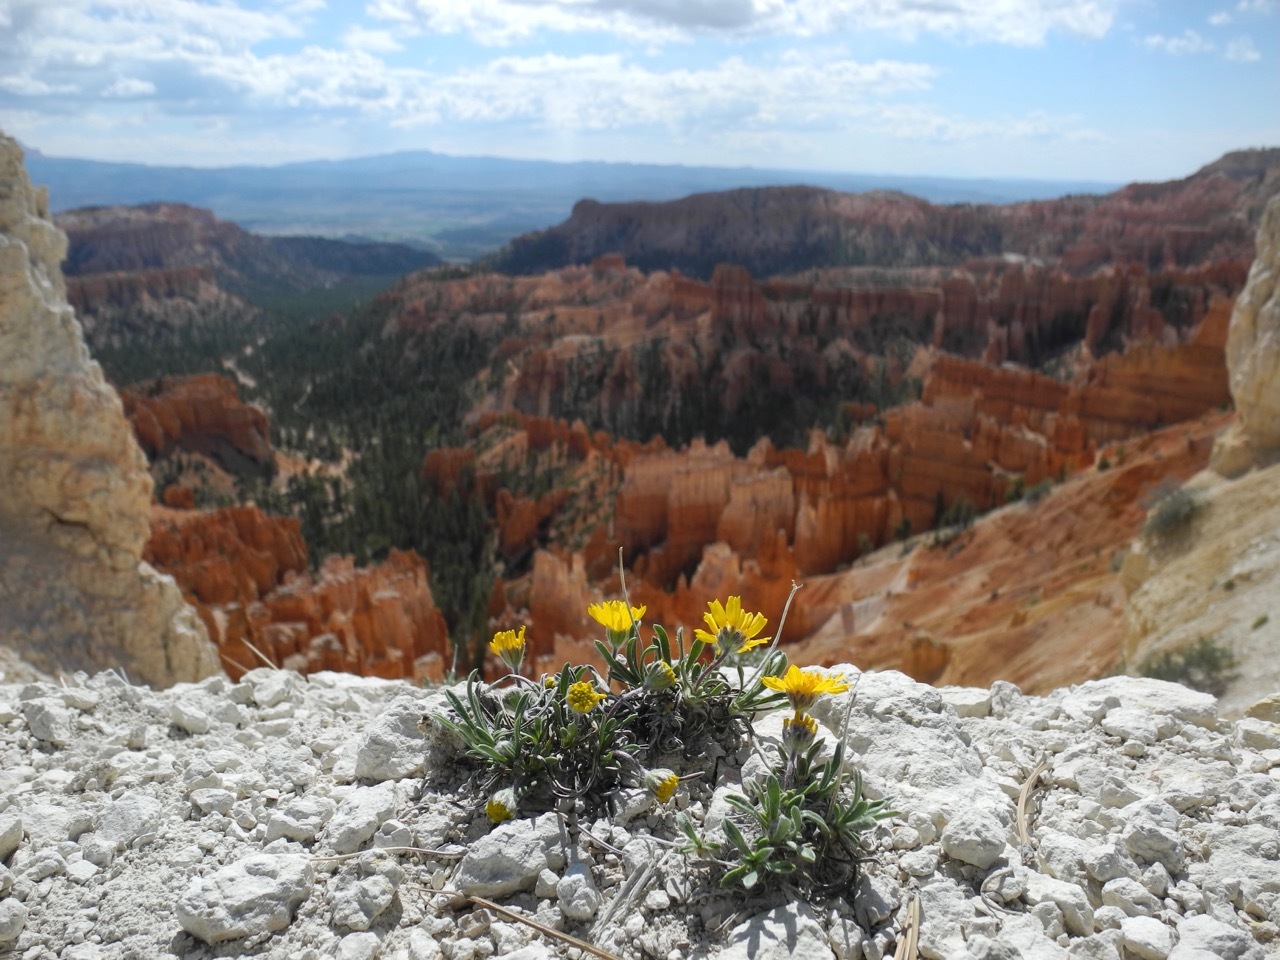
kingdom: Plantae
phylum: Tracheophyta
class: Magnoliopsida
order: Asterales
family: Asteraceae
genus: Tetraneuris
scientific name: Tetraneuris acaulis
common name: Butte marigold
